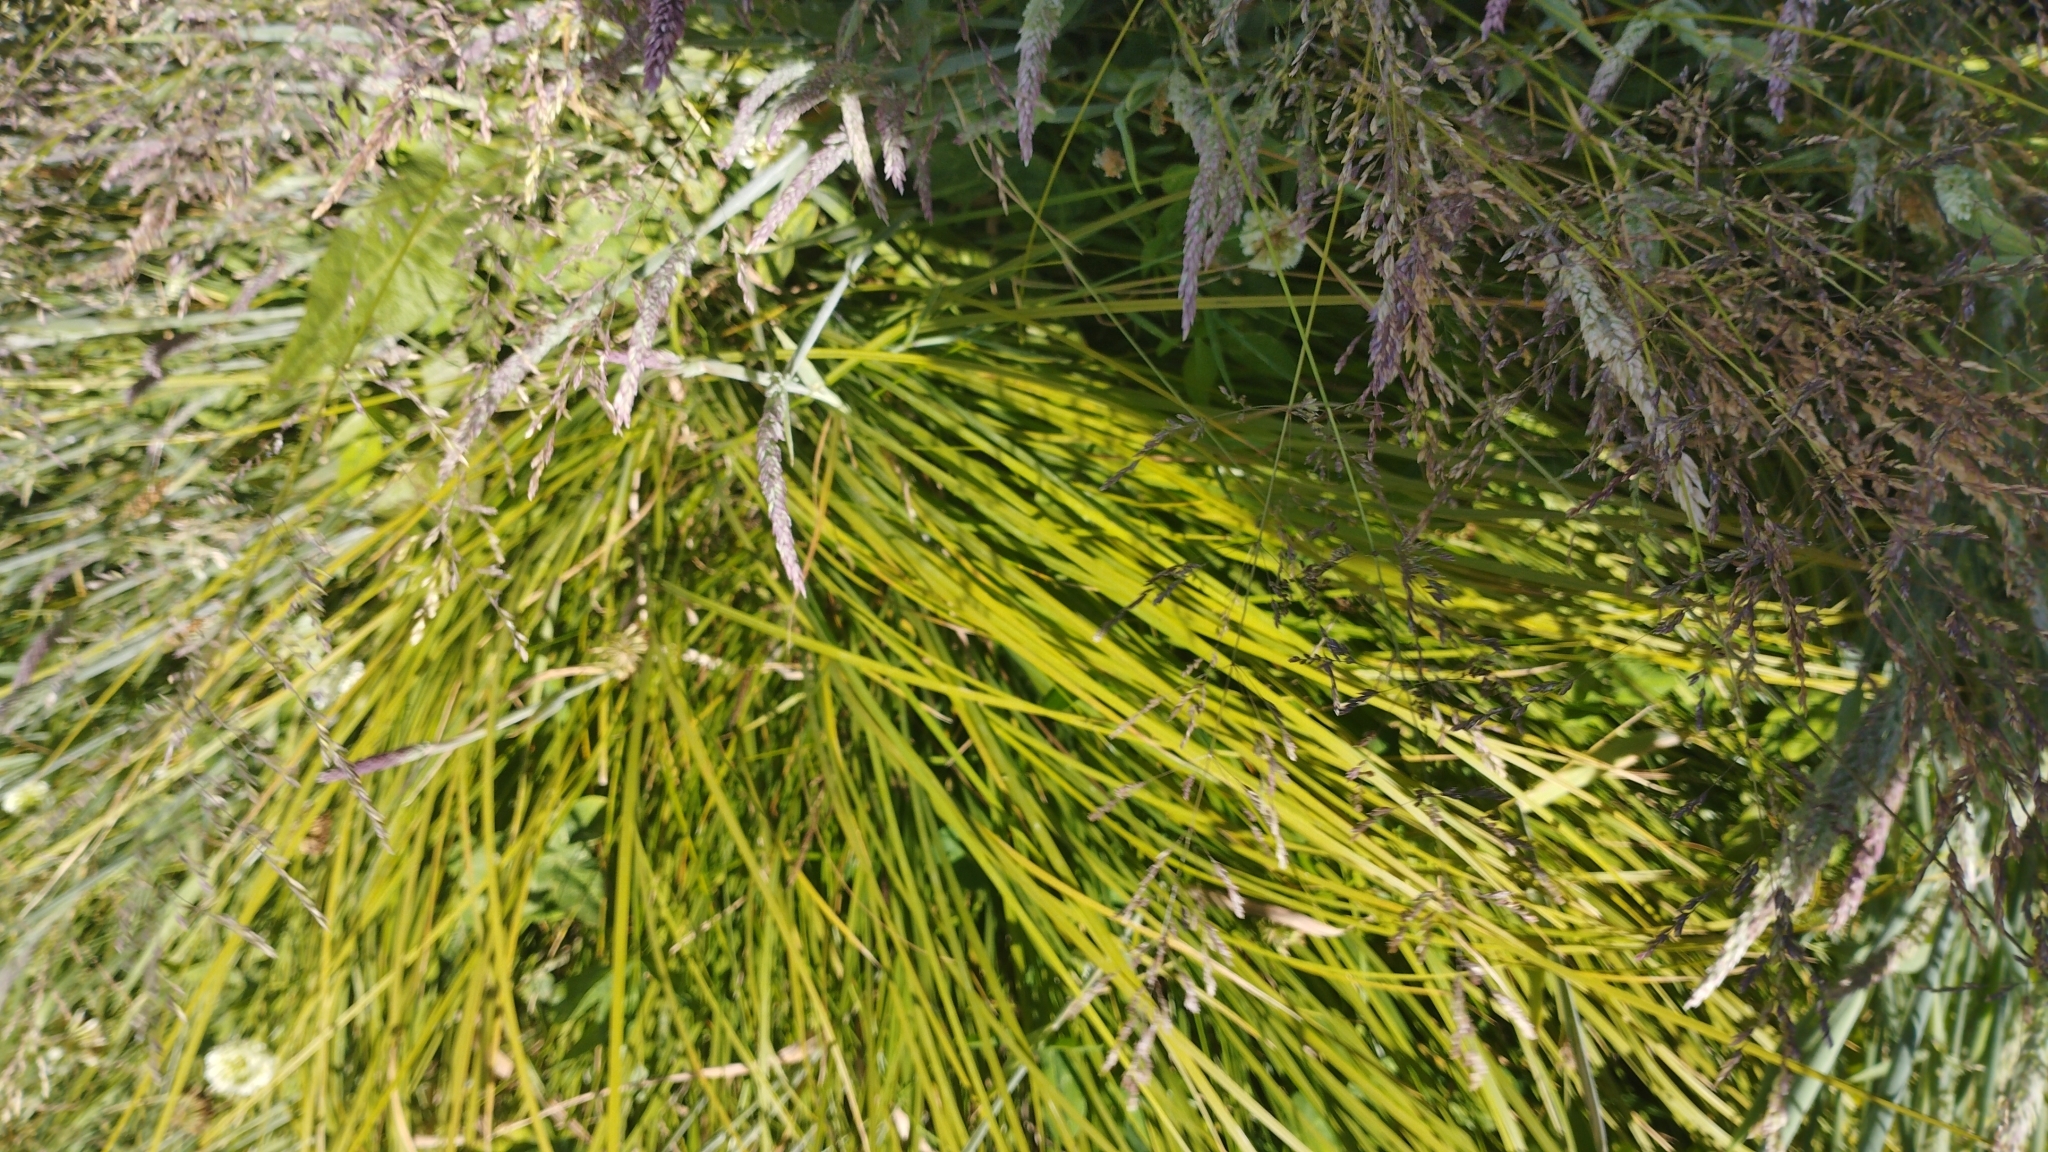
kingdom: Plantae
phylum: Tracheophyta
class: Liliopsida
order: Poales
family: Cyperaceae
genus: Carex
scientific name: Carex sinclairii
